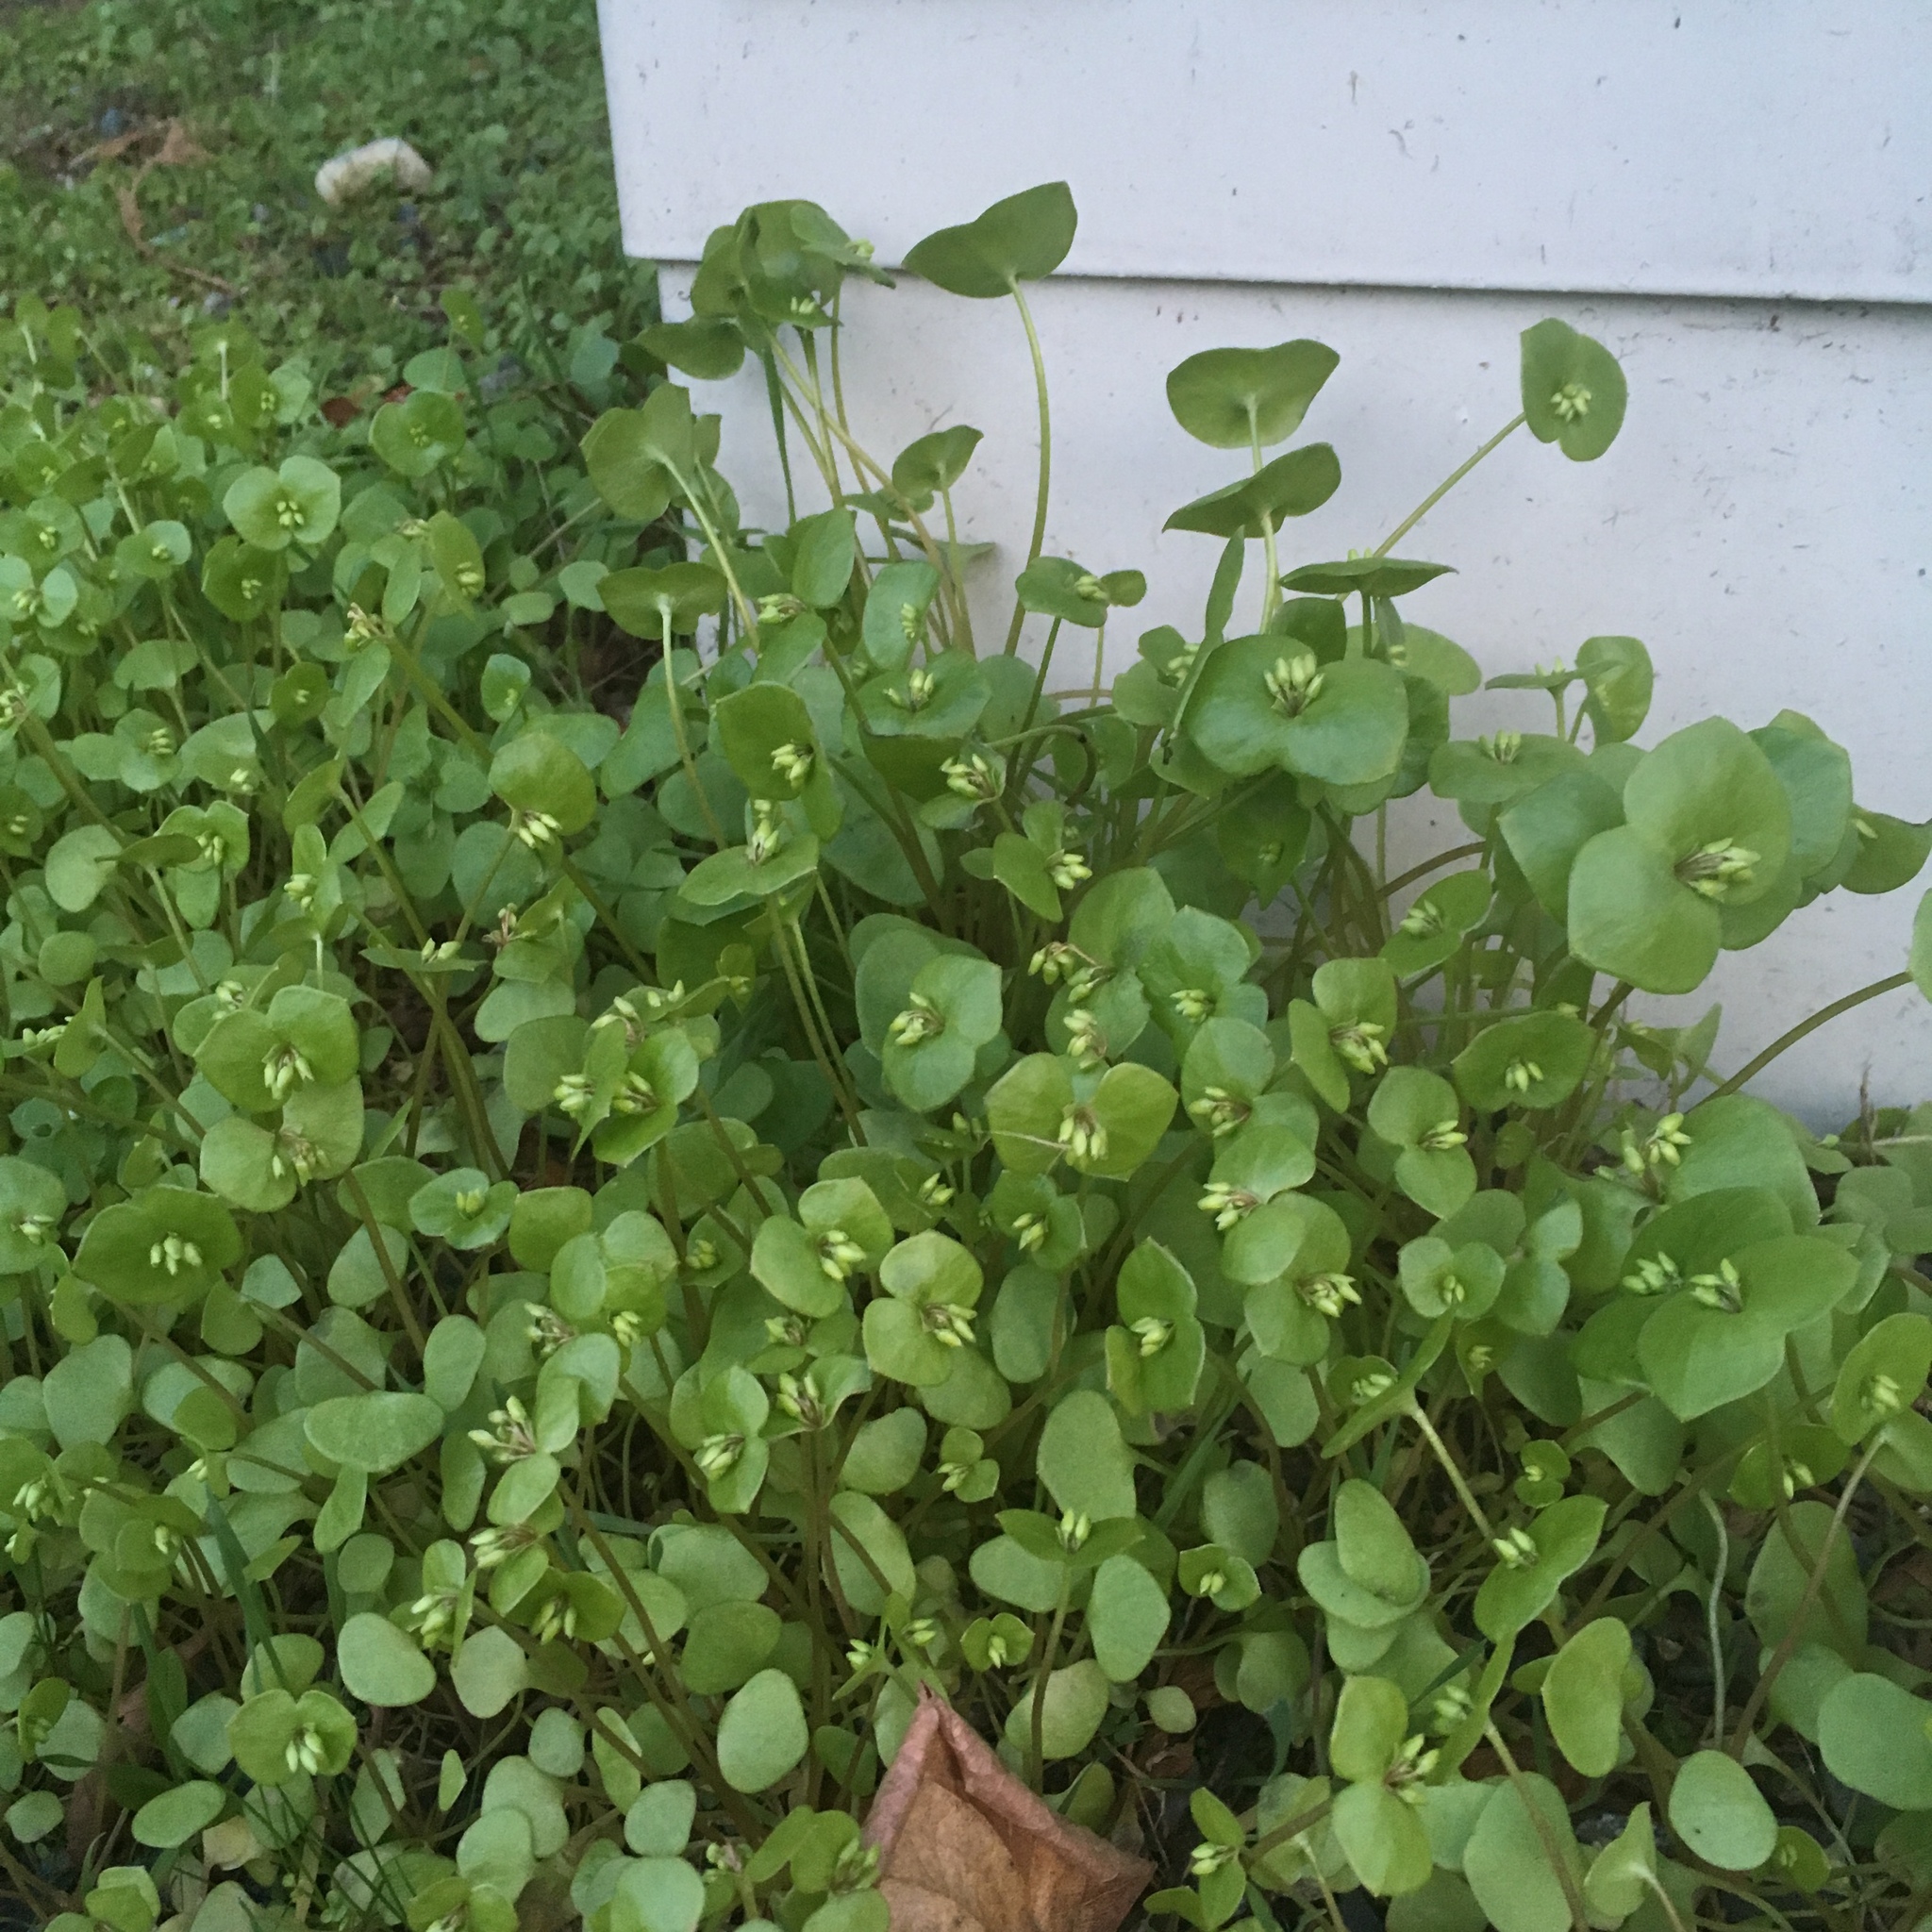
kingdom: Plantae
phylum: Tracheophyta
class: Magnoliopsida
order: Caryophyllales
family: Montiaceae
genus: Claytonia
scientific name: Claytonia perfoliata
